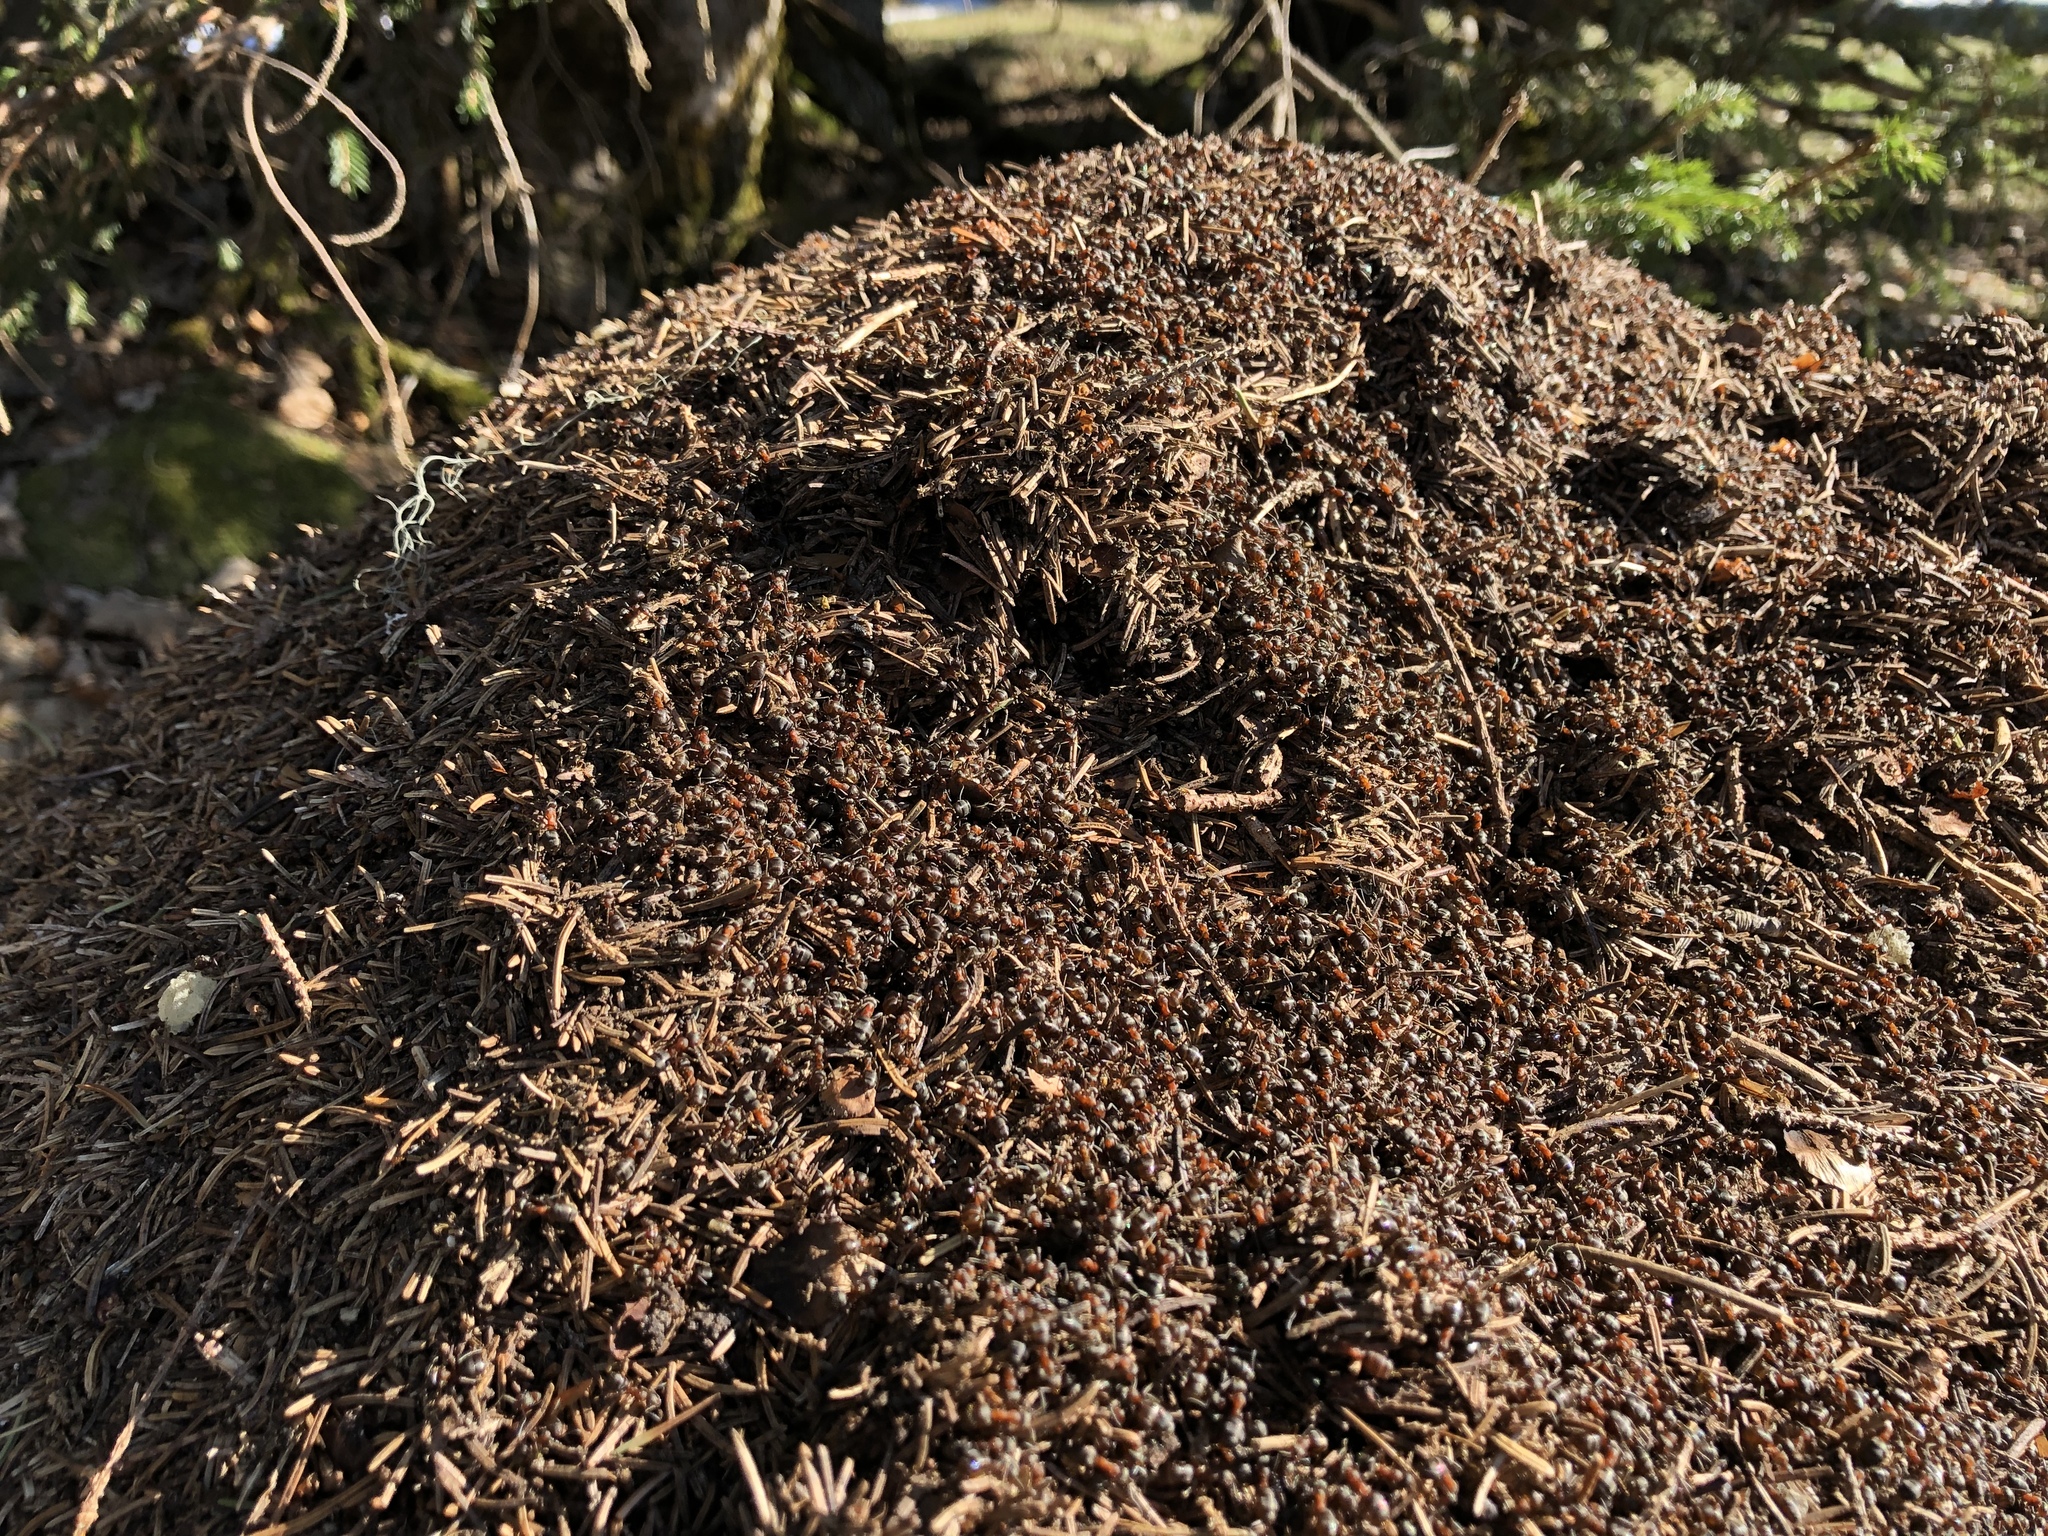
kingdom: Animalia
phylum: Arthropoda
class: Insecta
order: Hymenoptera
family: Formicidae
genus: Formica
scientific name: Formica rufa
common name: Red wood ant
